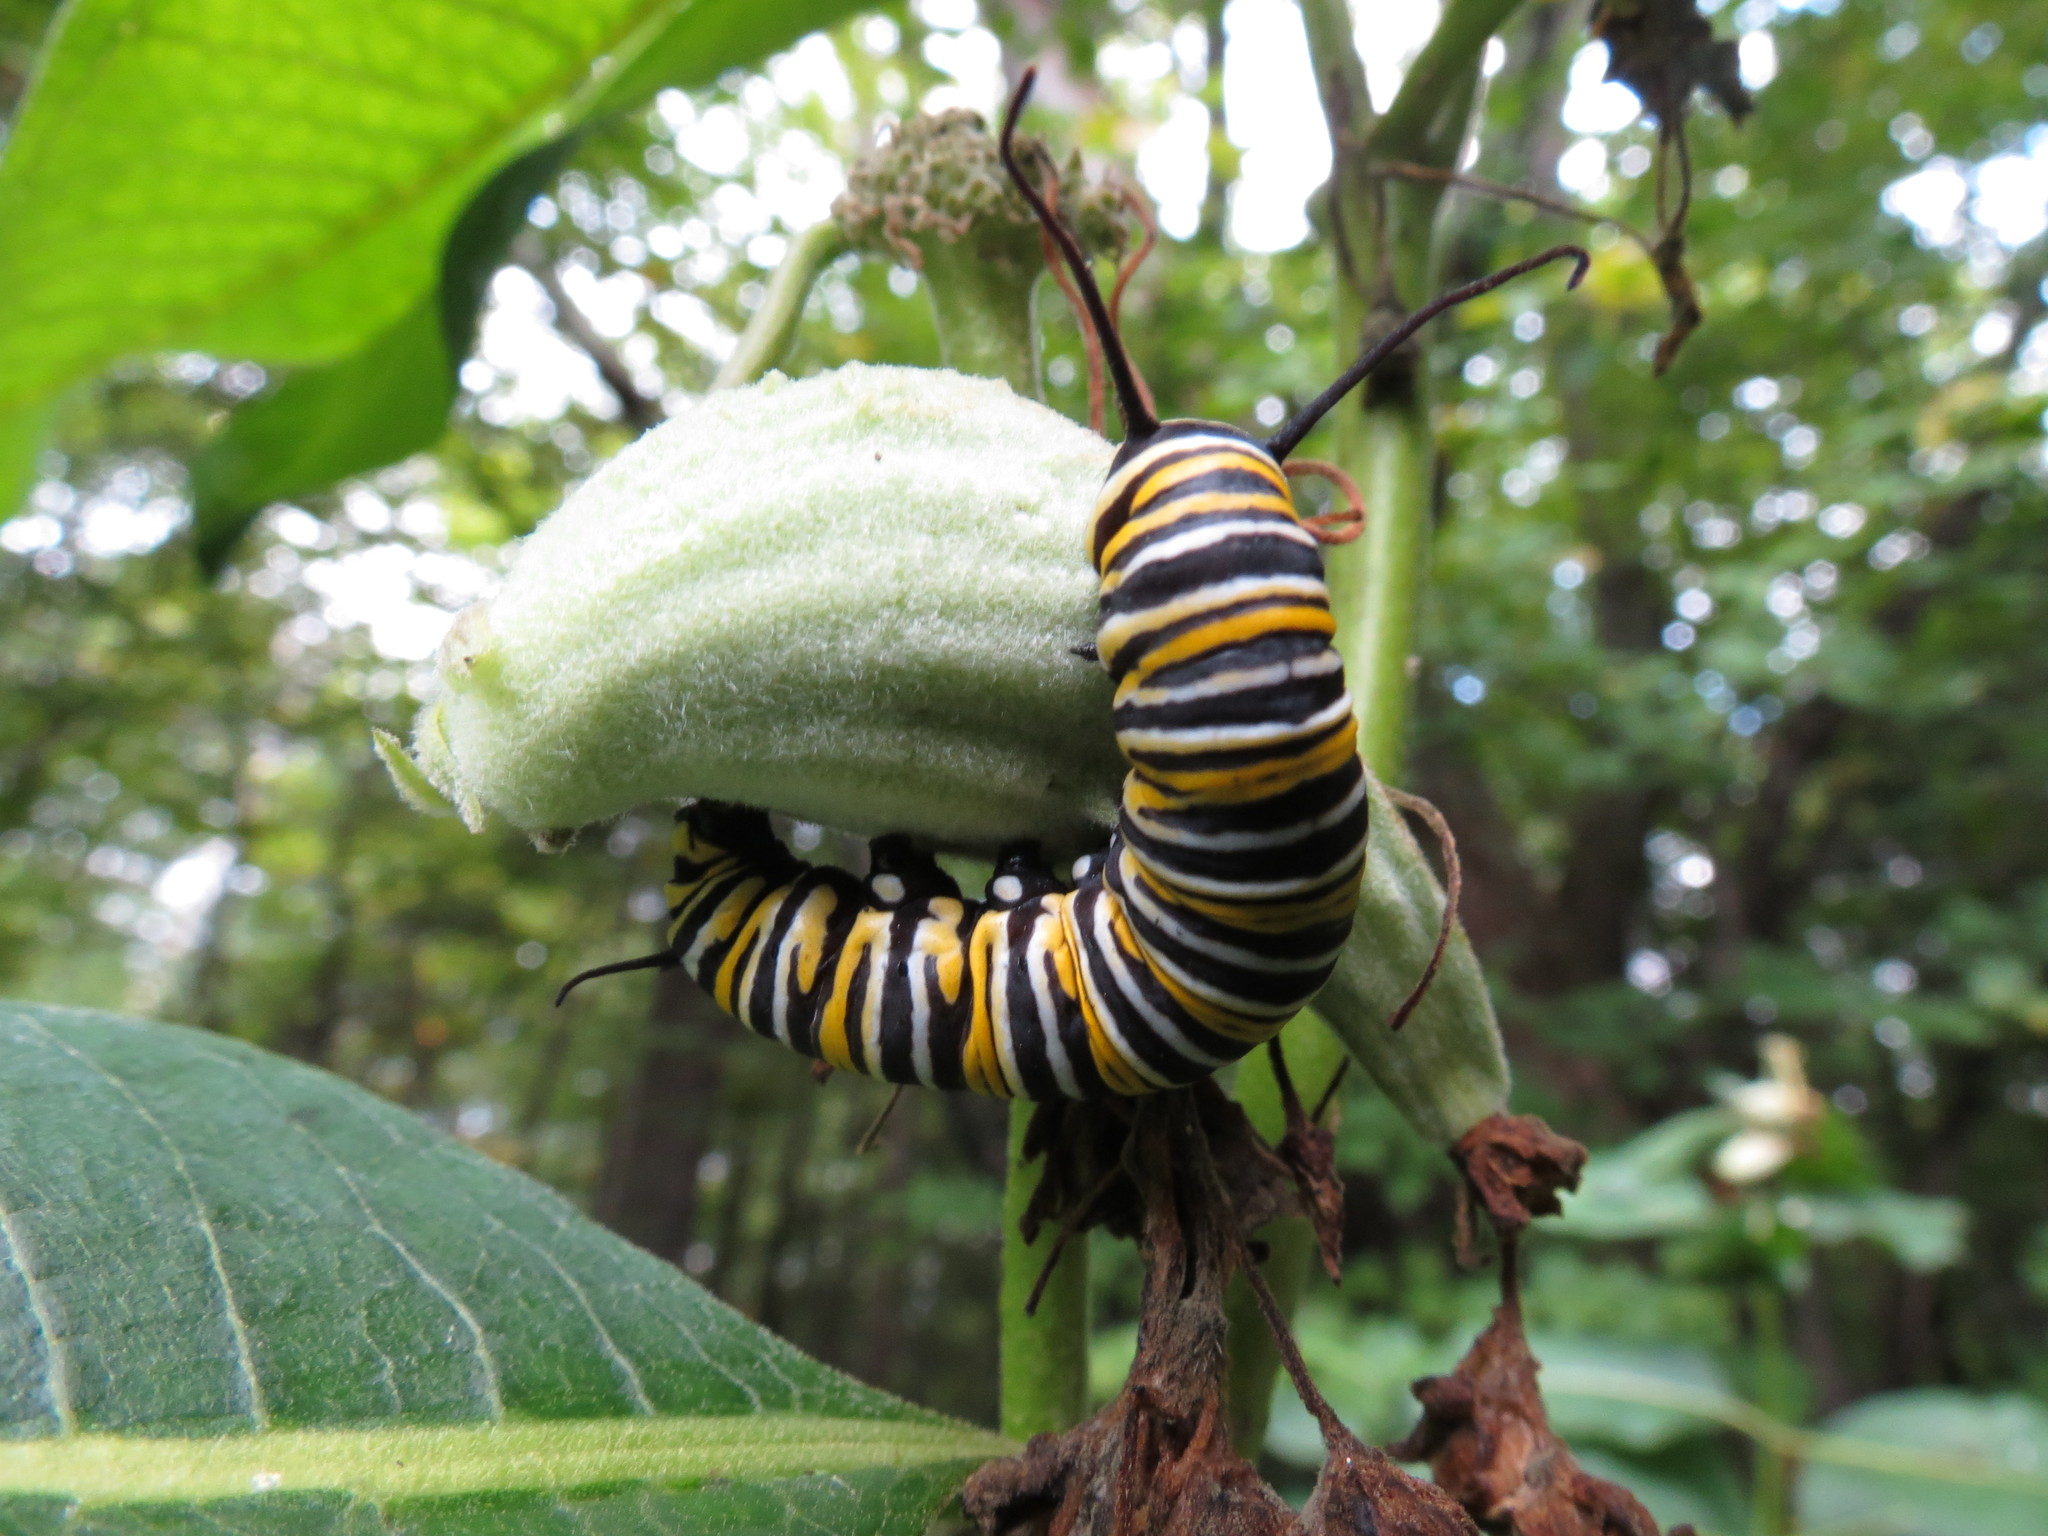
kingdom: Animalia
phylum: Arthropoda
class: Insecta
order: Lepidoptera
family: Nymphalidae
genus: Danaus
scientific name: Danaus plexippus
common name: Monarch
